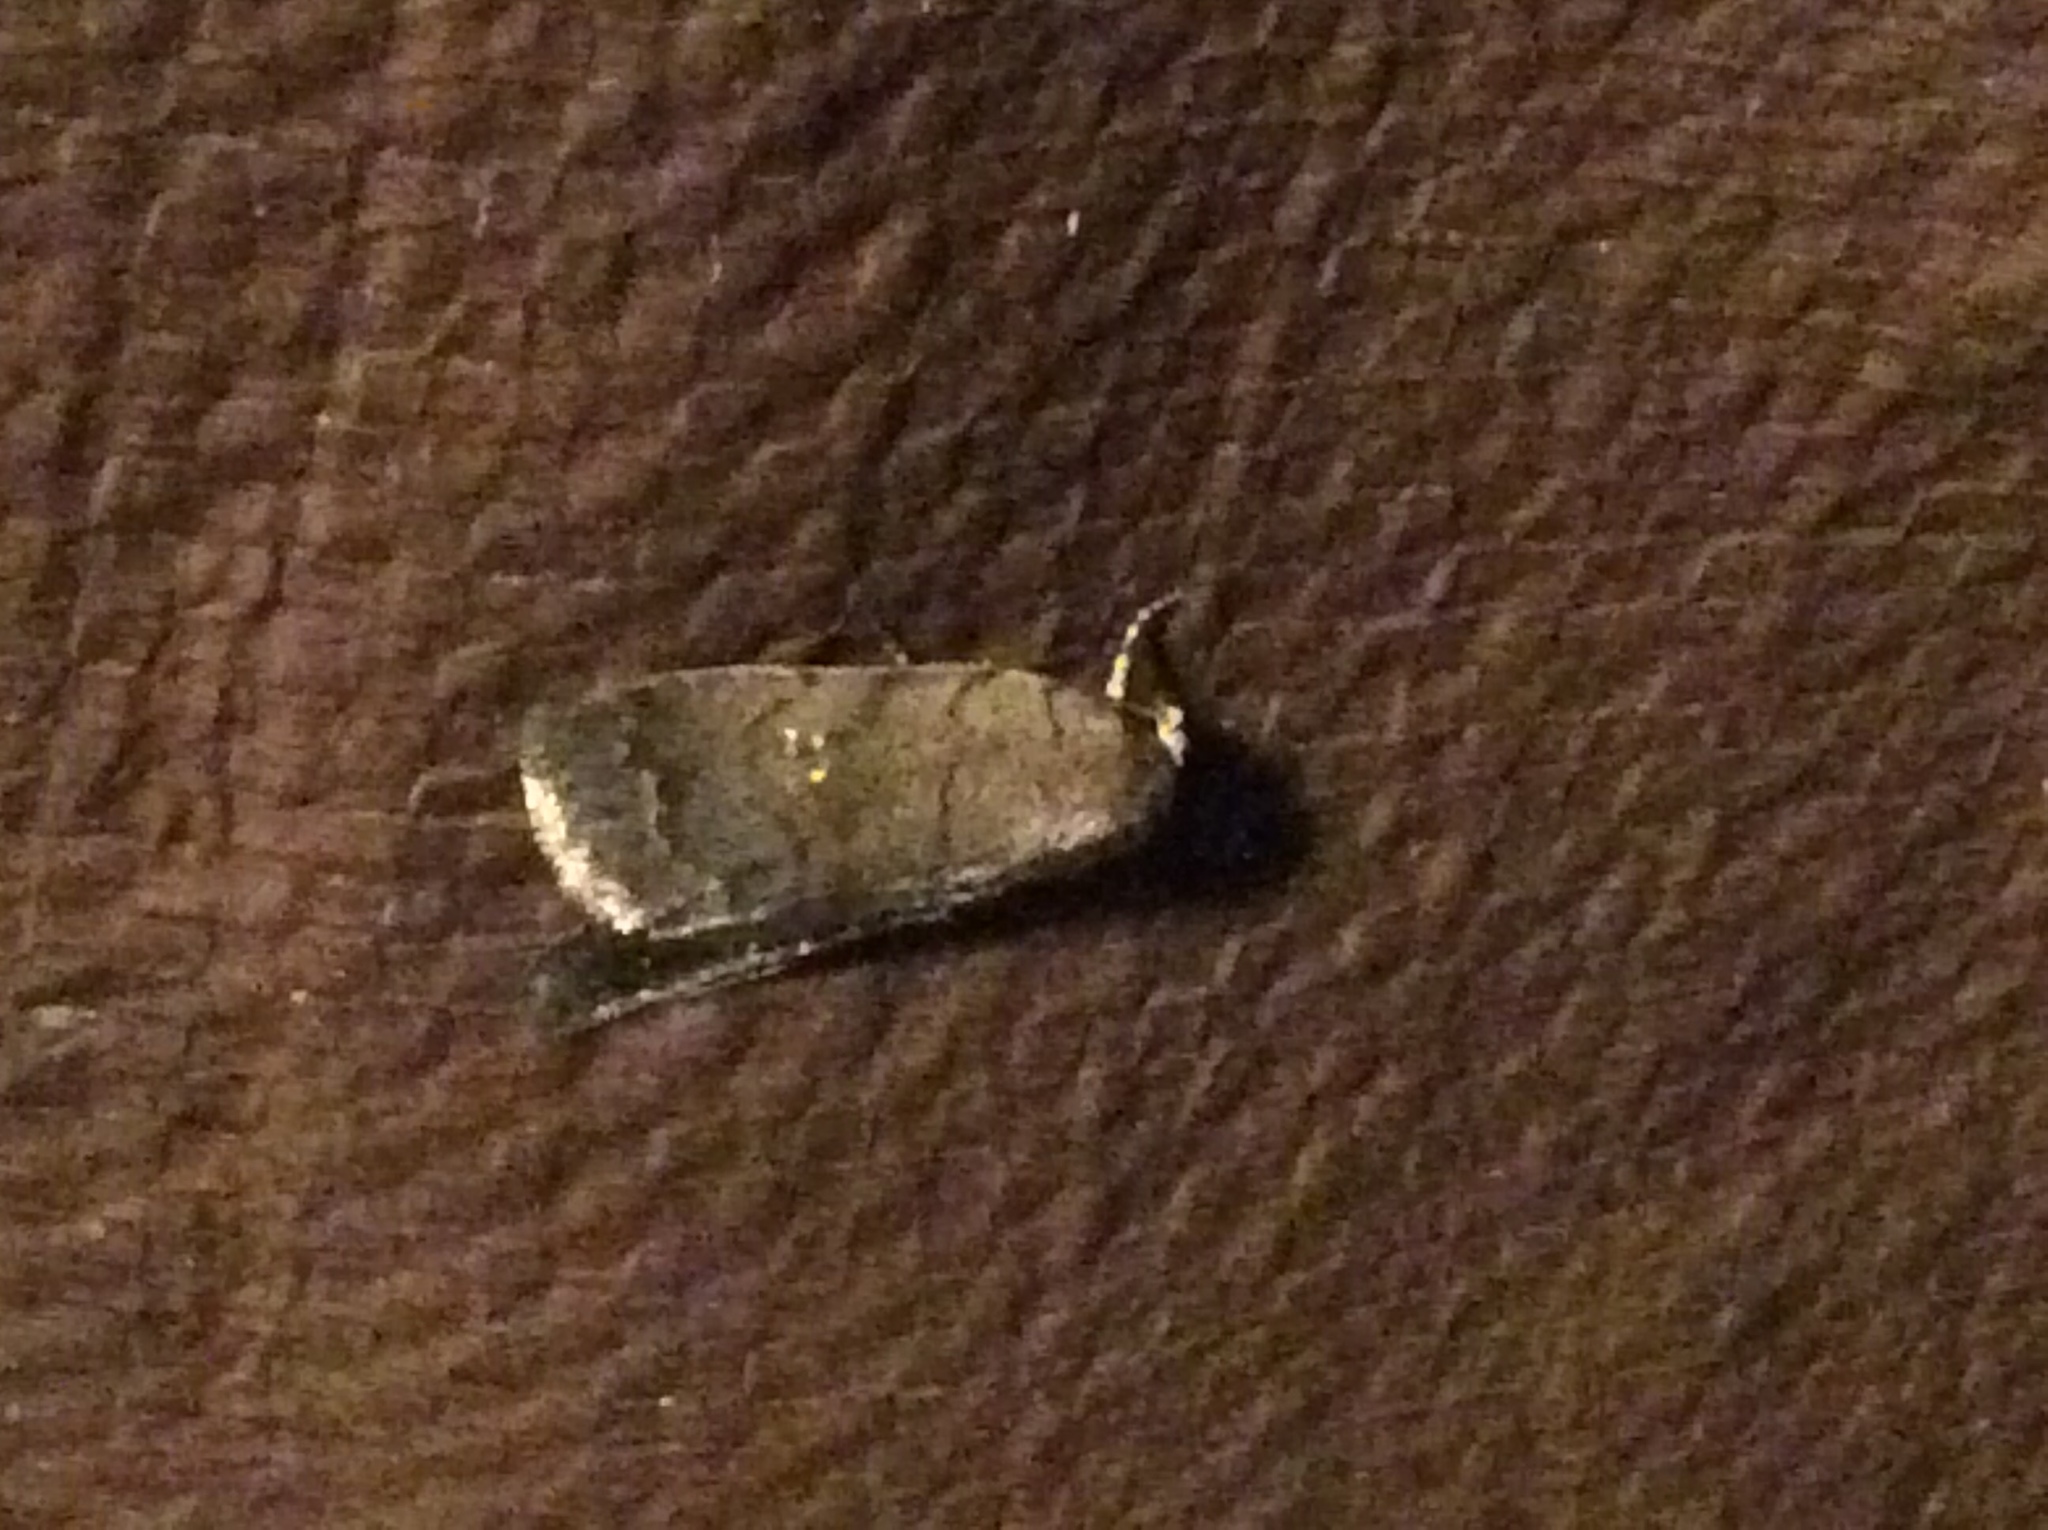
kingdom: Animalia
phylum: Arthropoda
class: Insecta
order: Lepidoptera
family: Noctuidae
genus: Athetis
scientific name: Athetis tarda
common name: Slowpoke moth
